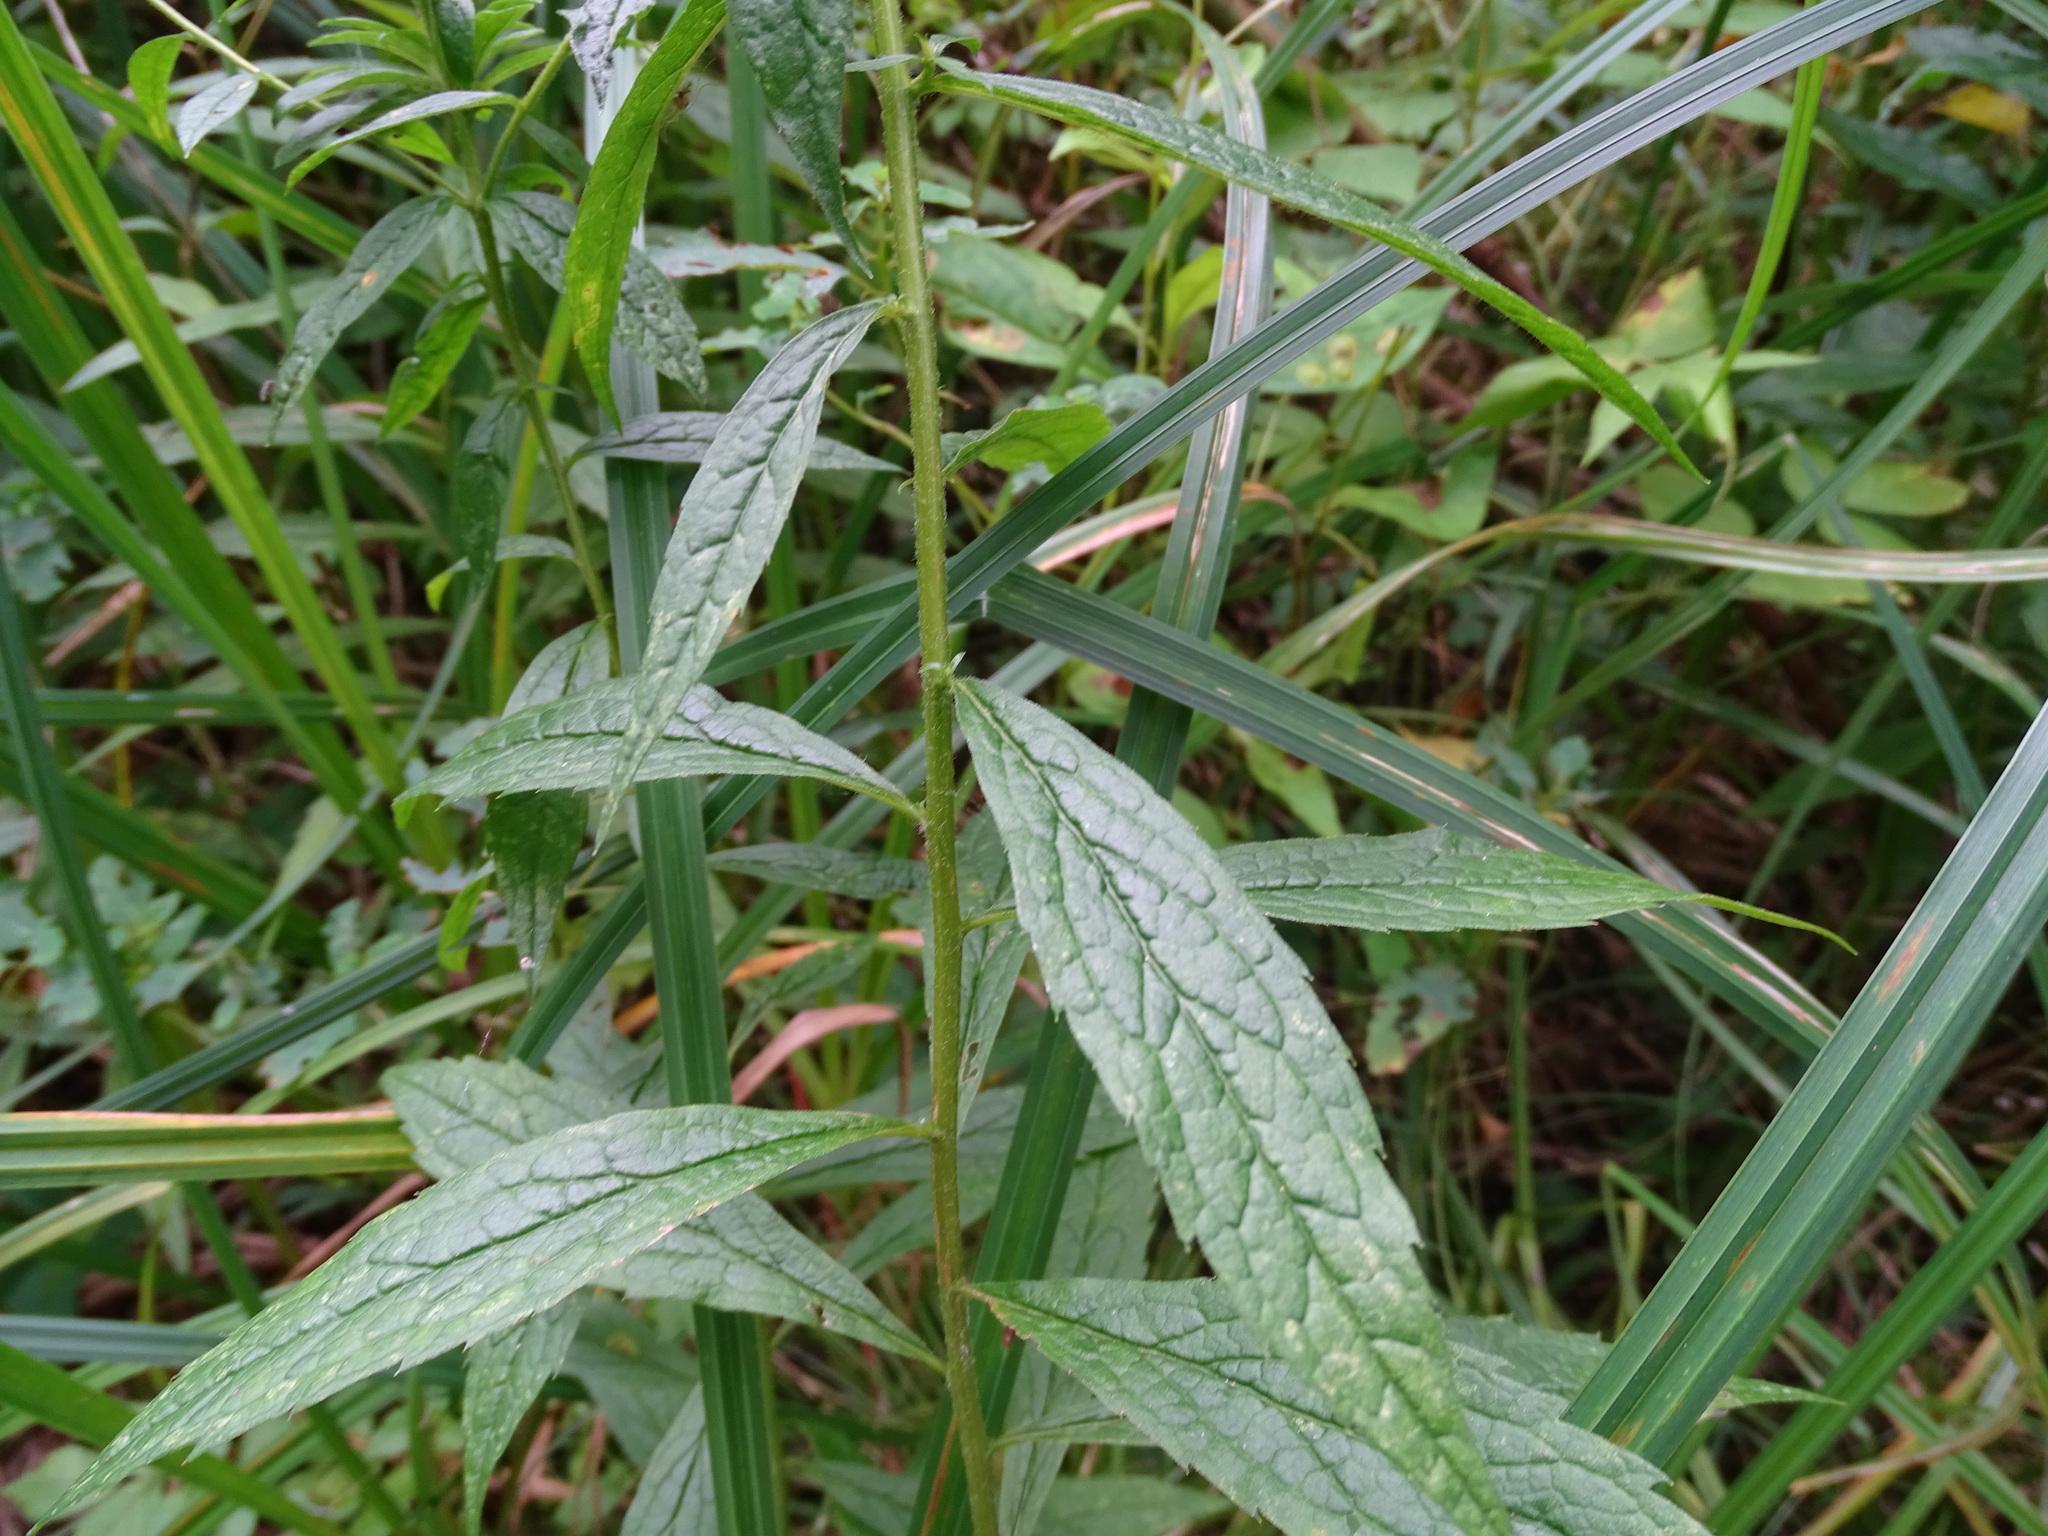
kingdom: Plantae
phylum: Tracheophyta
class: Magnoliopsida
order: Asterales
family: Asteraceae
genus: Solidago
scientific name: Solidago rugosa
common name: Rough-stemmed goldenrod
